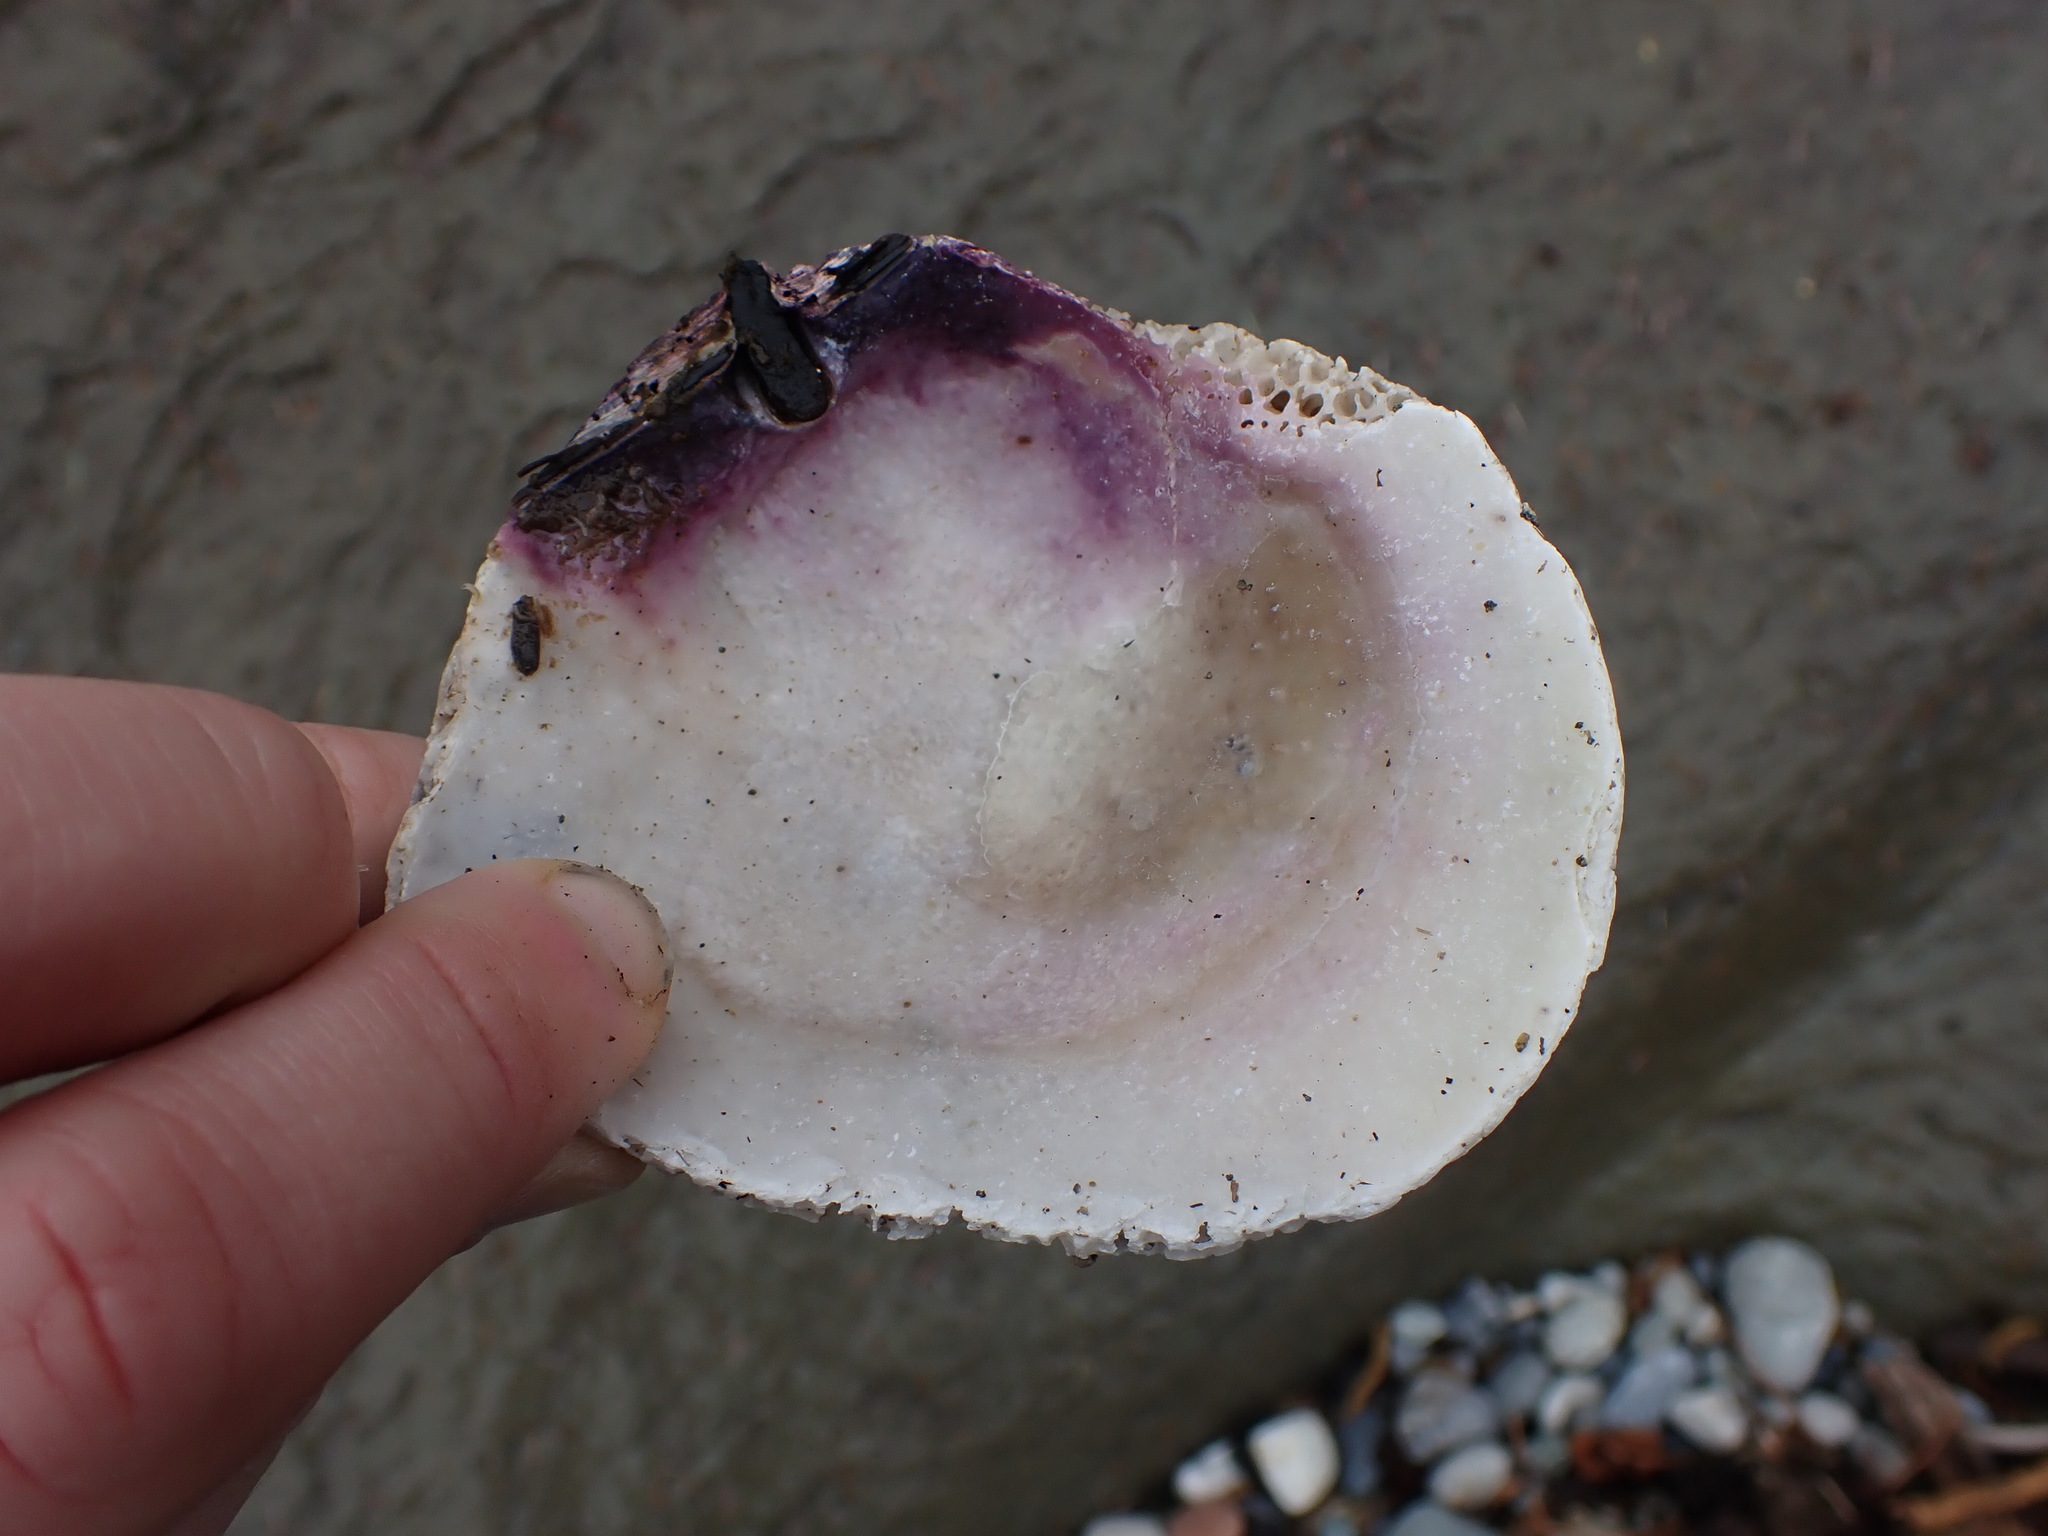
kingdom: Animalia
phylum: Mollusca
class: Bivalvia
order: Pectinida
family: Pectinidae
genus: Crassadoma
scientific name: Crassadoma gigantea
